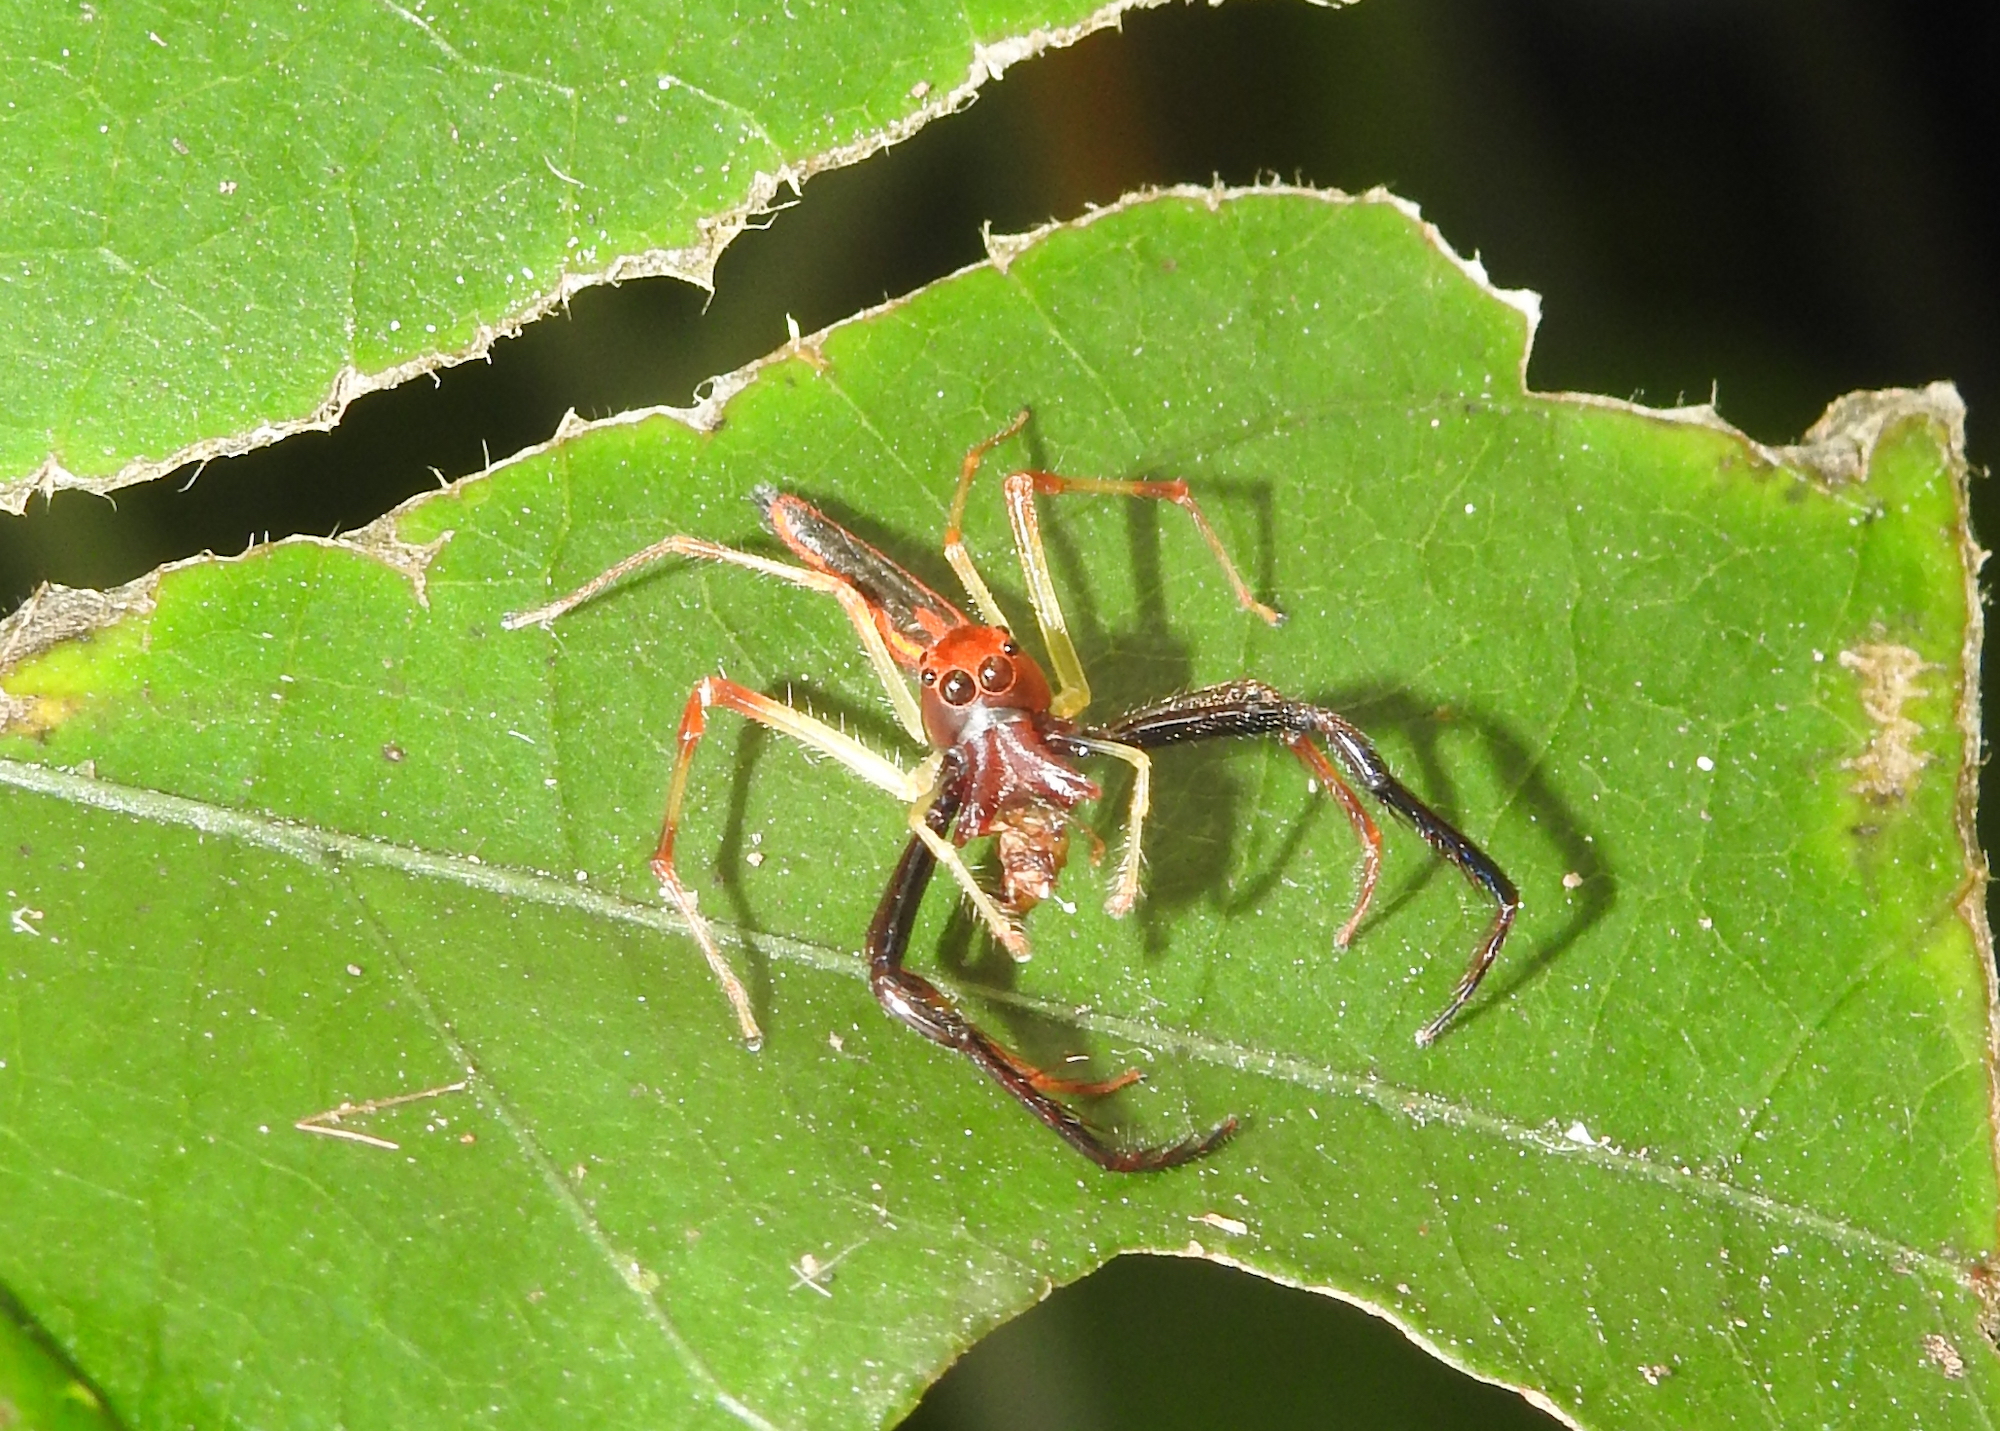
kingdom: Animalia
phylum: Arthropoda
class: Arachnida
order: Araneae
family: Salticidae
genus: Viciria
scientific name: Viciria pavesii
